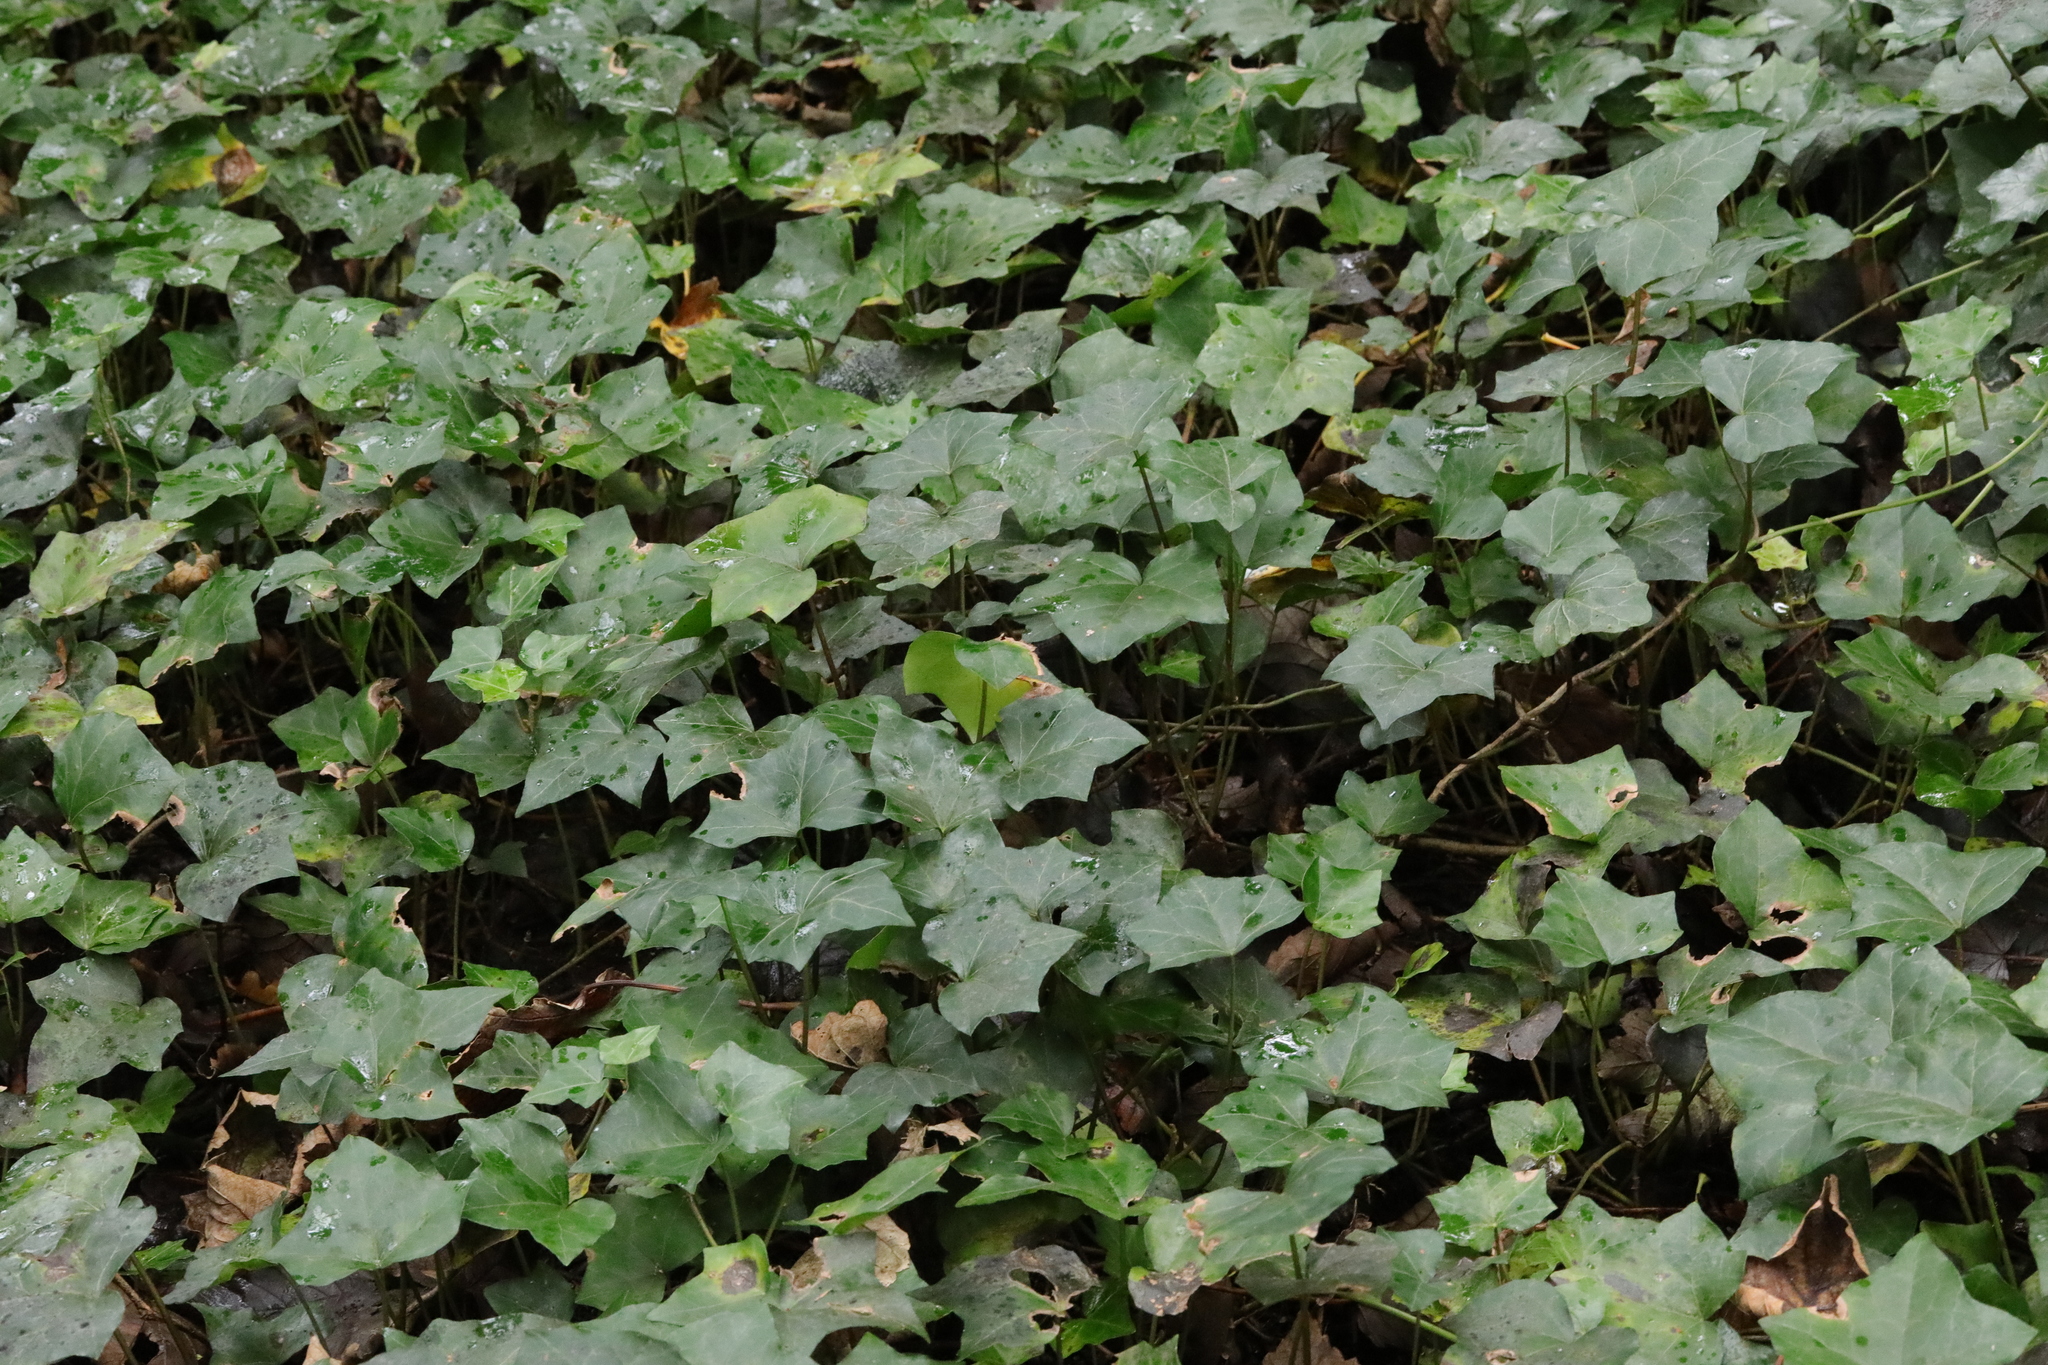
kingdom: Plantae
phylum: Tracheophyta
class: Magnoliopsida
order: Apiales
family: Araliaceae
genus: Hedera
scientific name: Hedera helix
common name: Ivy
